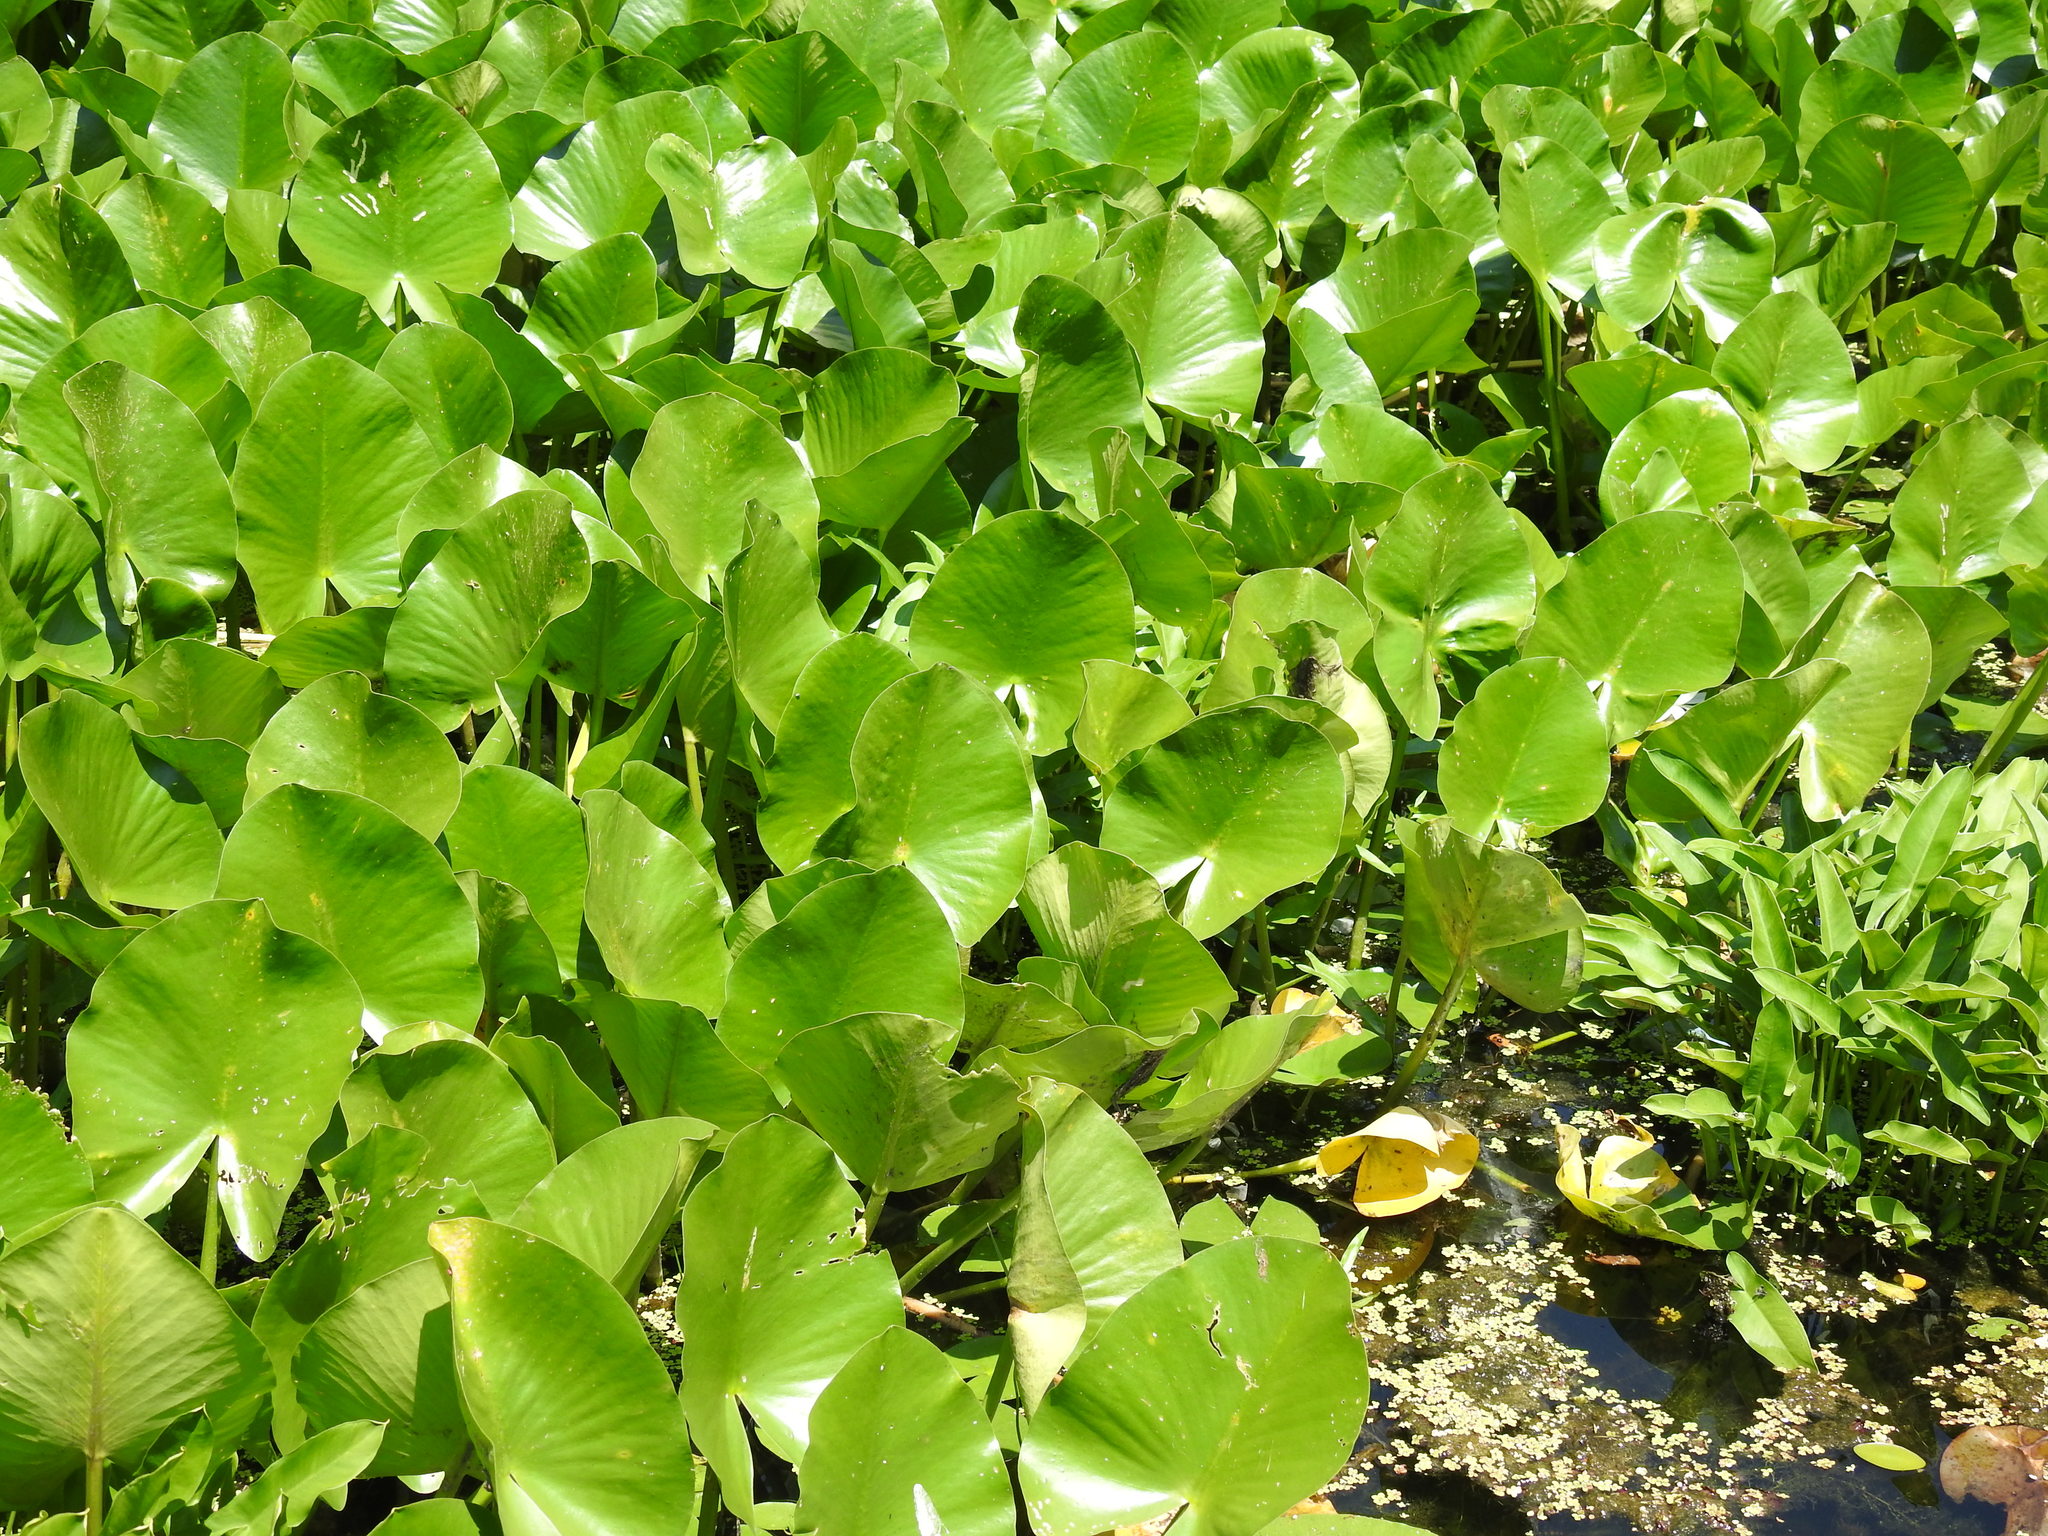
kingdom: Plantae
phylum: Tracheophyta
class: Magnoliopsida
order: Nymphaeales
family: Nymphaeaceae
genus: Nuphar
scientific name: Nuphar advena
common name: Spatter-dock
